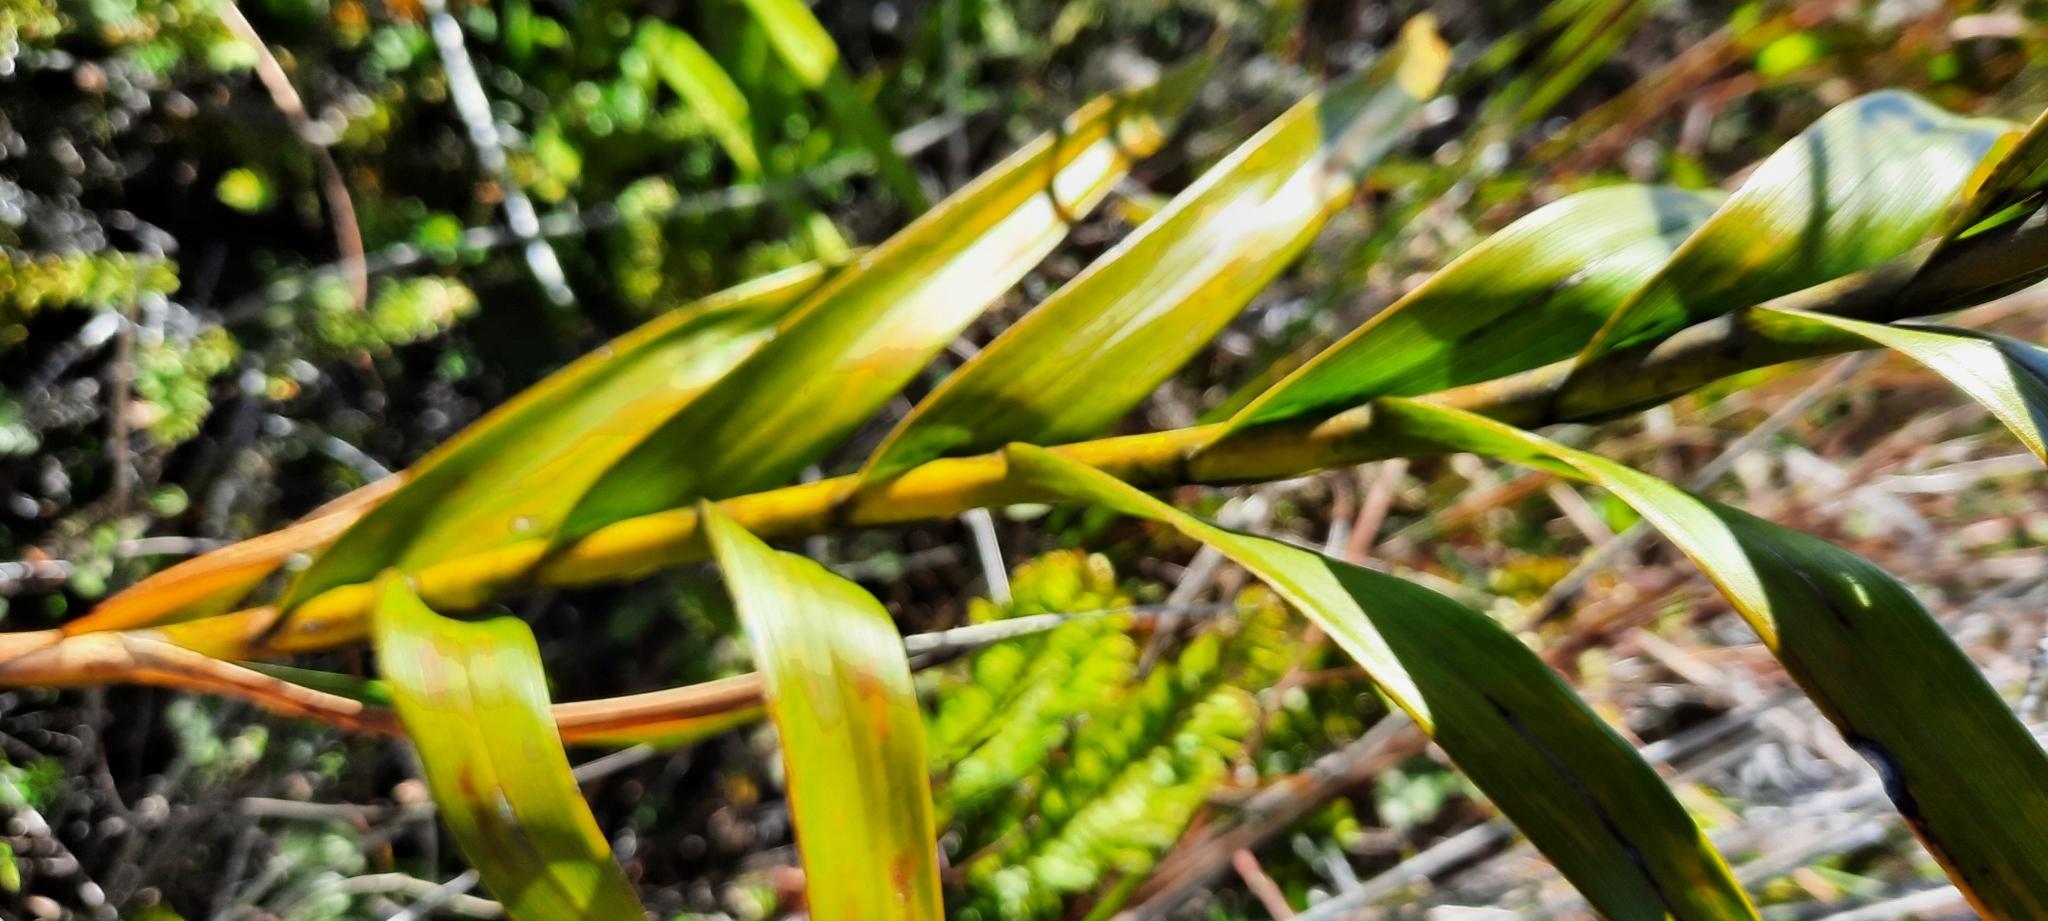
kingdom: Plantae
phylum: Tracheophyta
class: Liliopsida
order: Asparagales
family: Orchidaceae
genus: Arundina
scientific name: Arundina graminifolia
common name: Bamboo orchid
